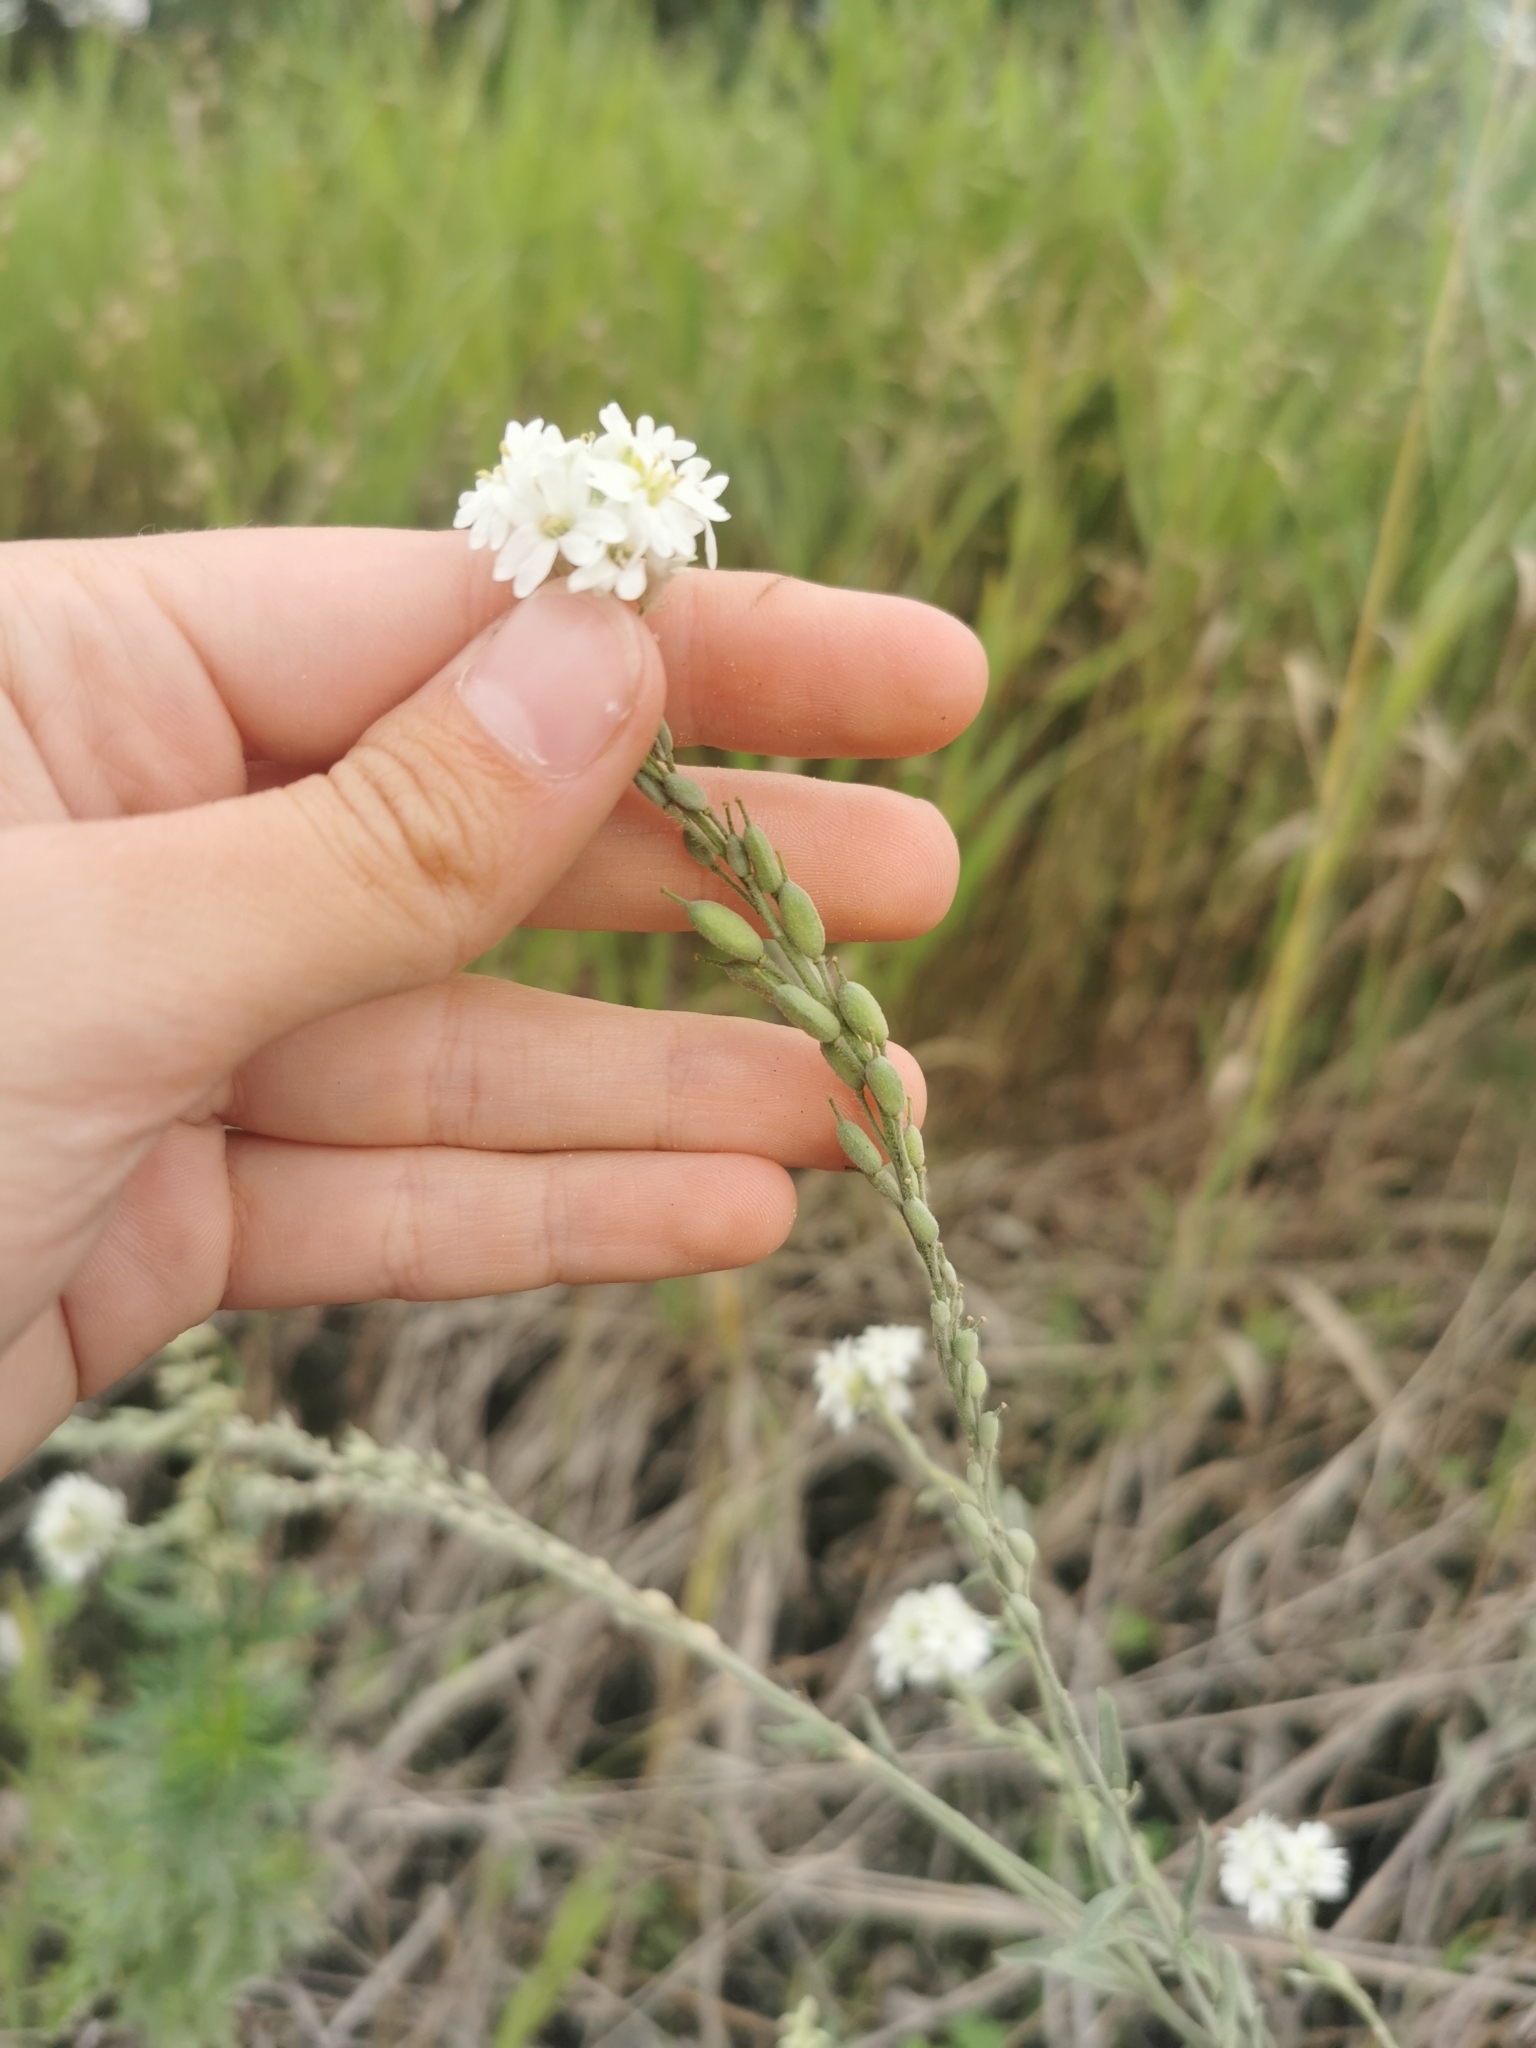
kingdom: Plantae
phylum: Tracheophyta
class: Magnoliopsida
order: Brassicales
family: Brassicaceae
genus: Berteroa
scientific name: Berteroa incana
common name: Hoary alison
